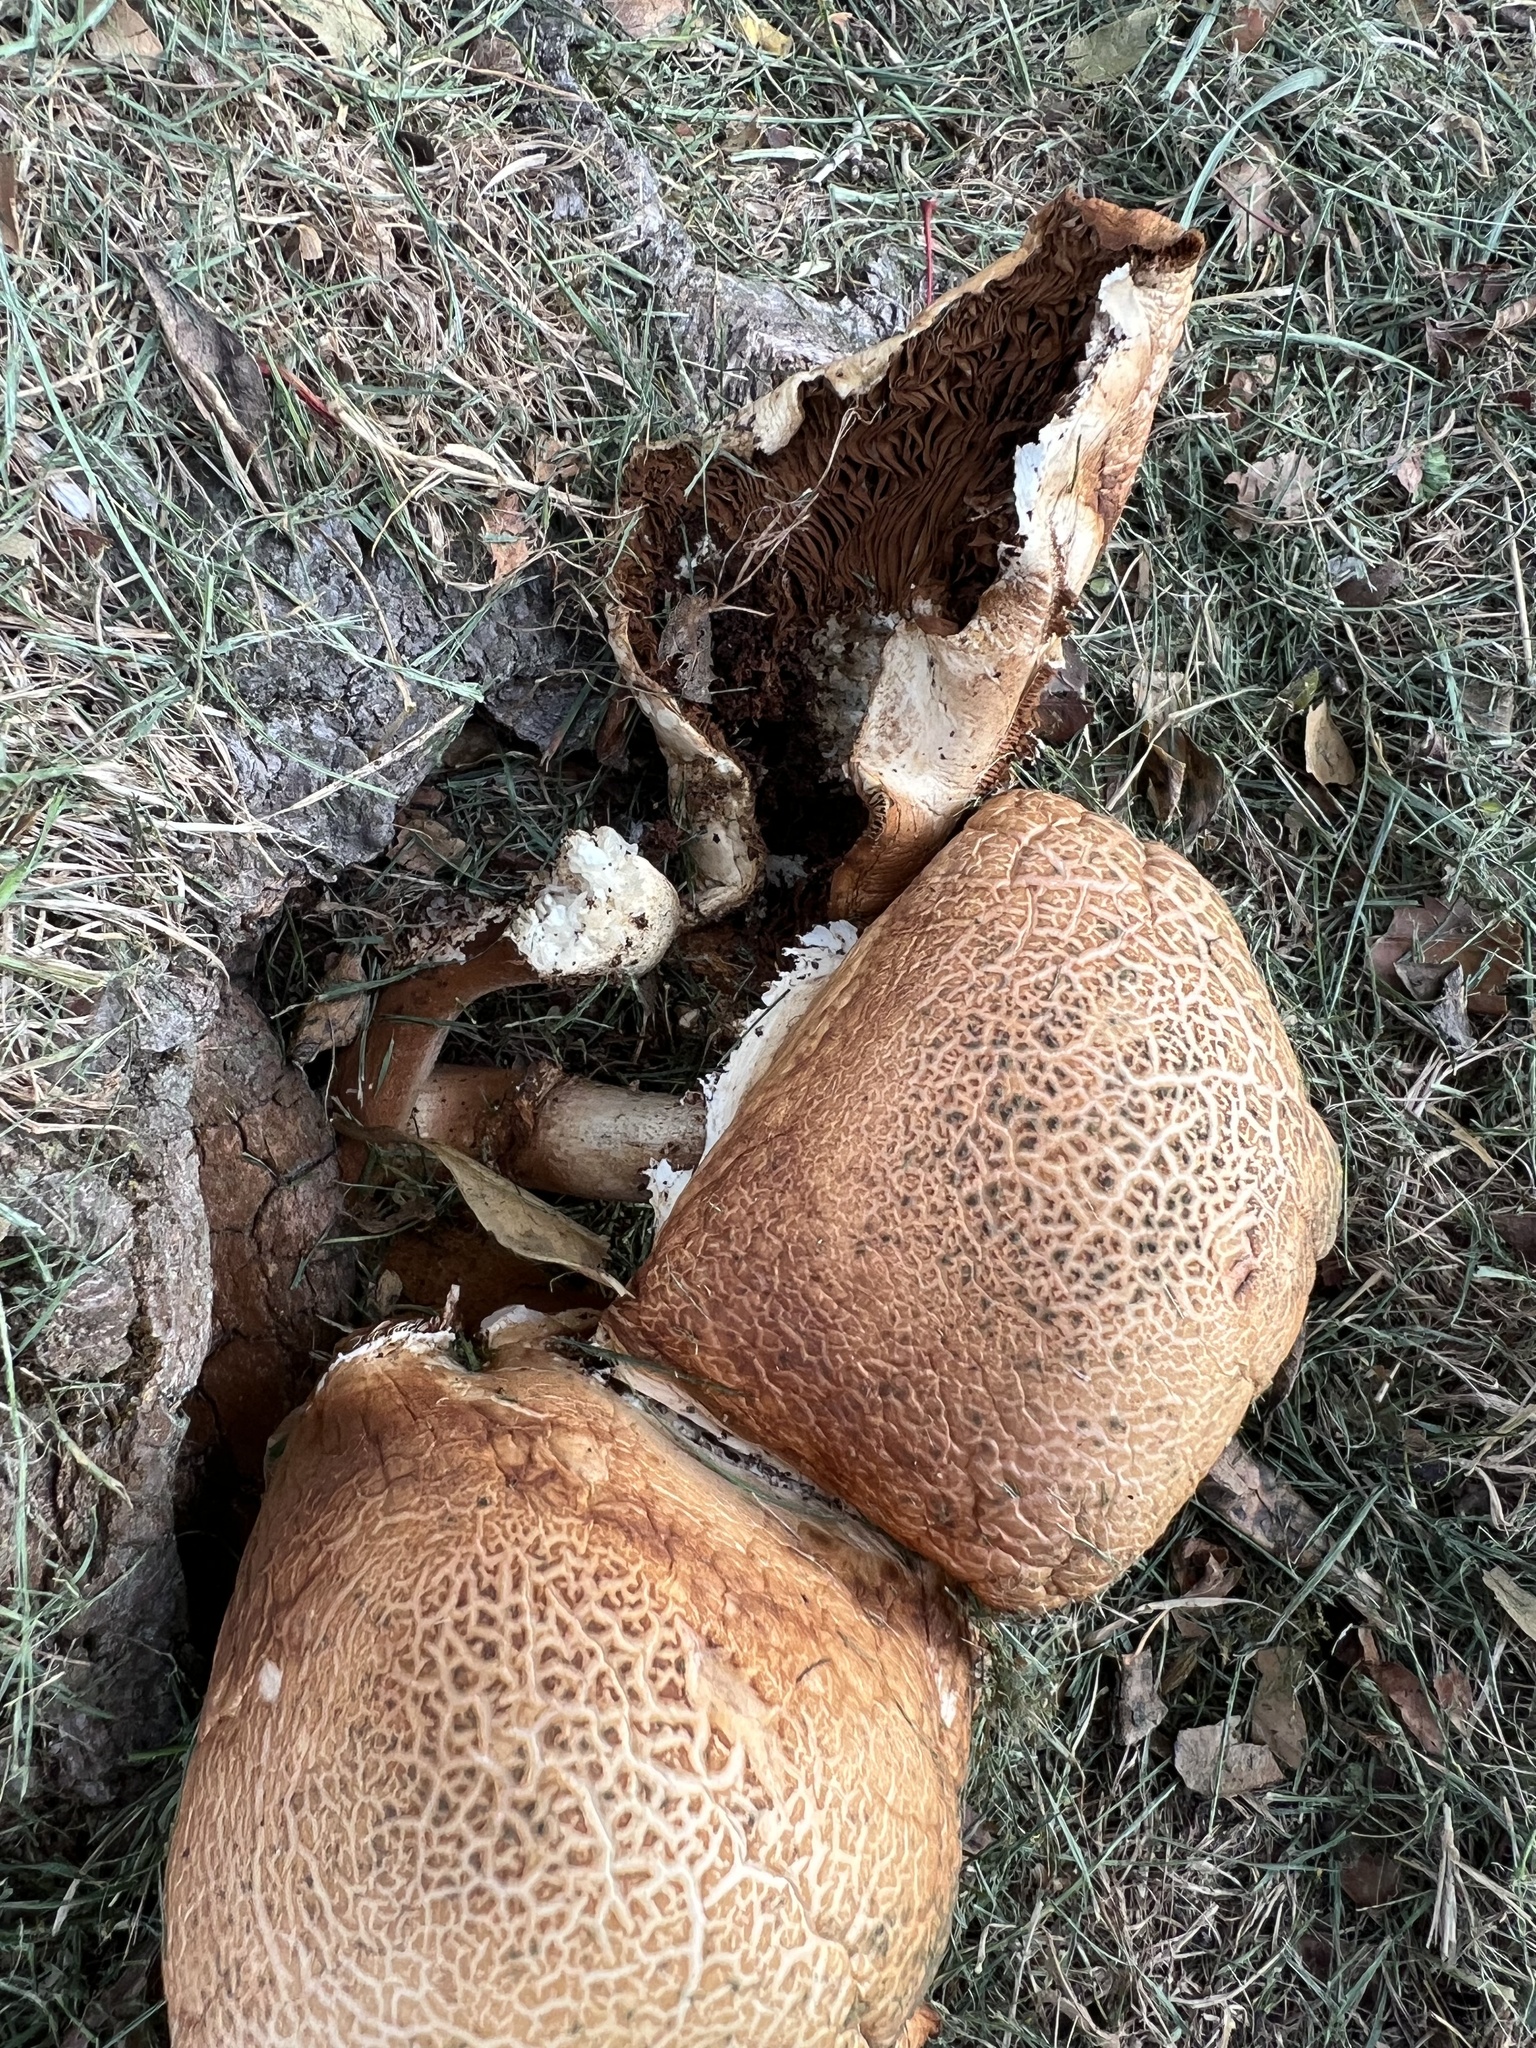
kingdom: Fungi
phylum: Basidiomycota
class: Agaricomycetes
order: Agaricales
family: Tubariaceae
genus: Cyclocybe
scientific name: Cyclocybe parasitica
